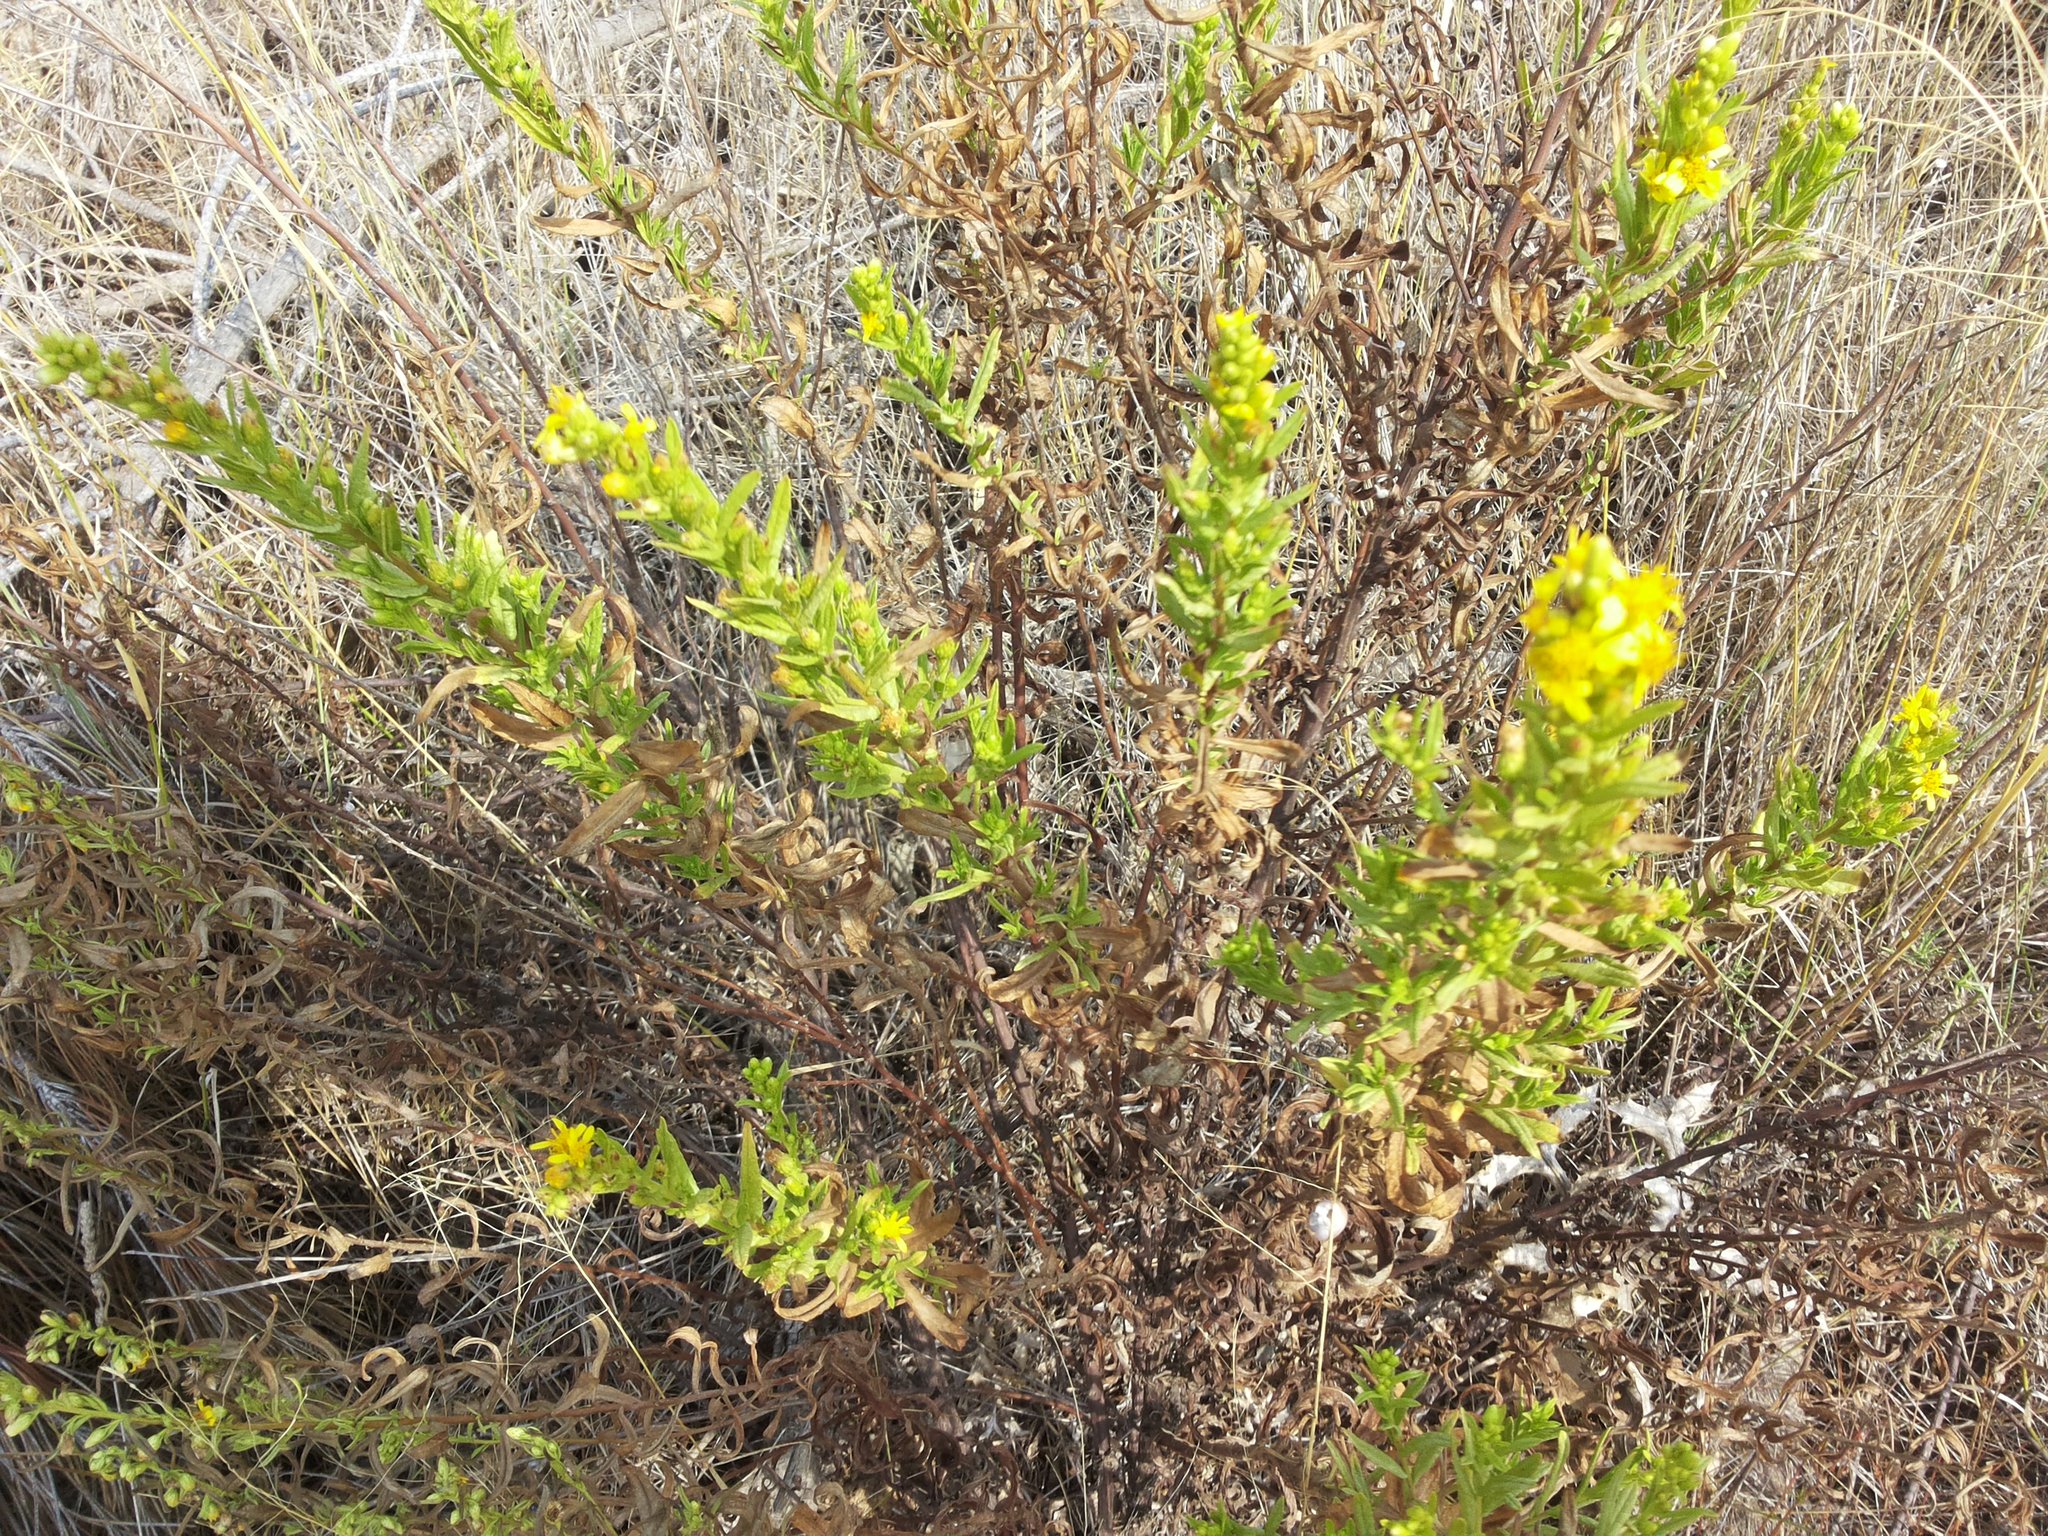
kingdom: Plantae
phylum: Tracheophyta
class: Magnoliopsida
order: Asterales
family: Asteraceae
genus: Dittrichia
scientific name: Dittrichia viscosa
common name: Woody fleabane
